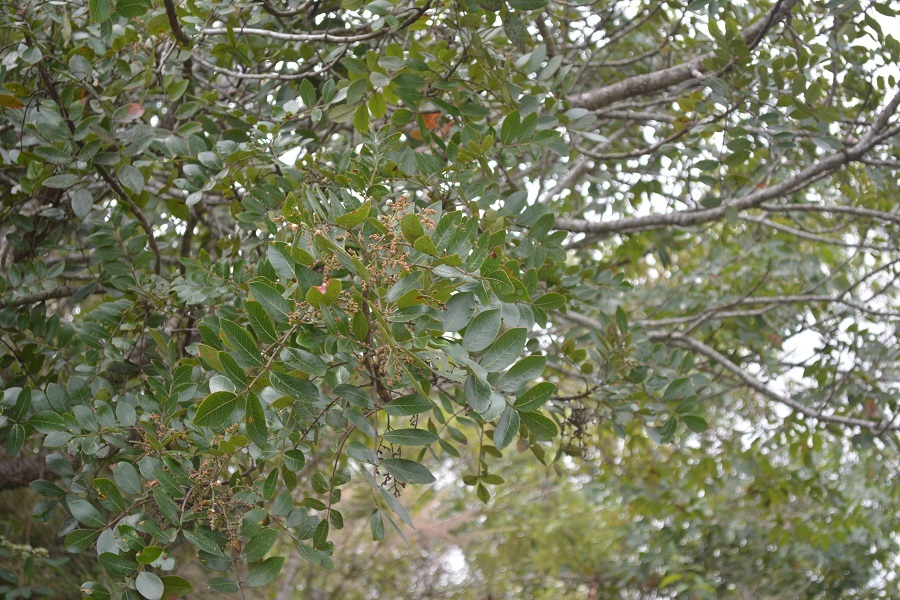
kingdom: Plantae
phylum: Tracheophyta
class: Magnoliopsida
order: Sapindales
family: Anacardiaceae
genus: Rhus
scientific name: Rhus schiedeana
